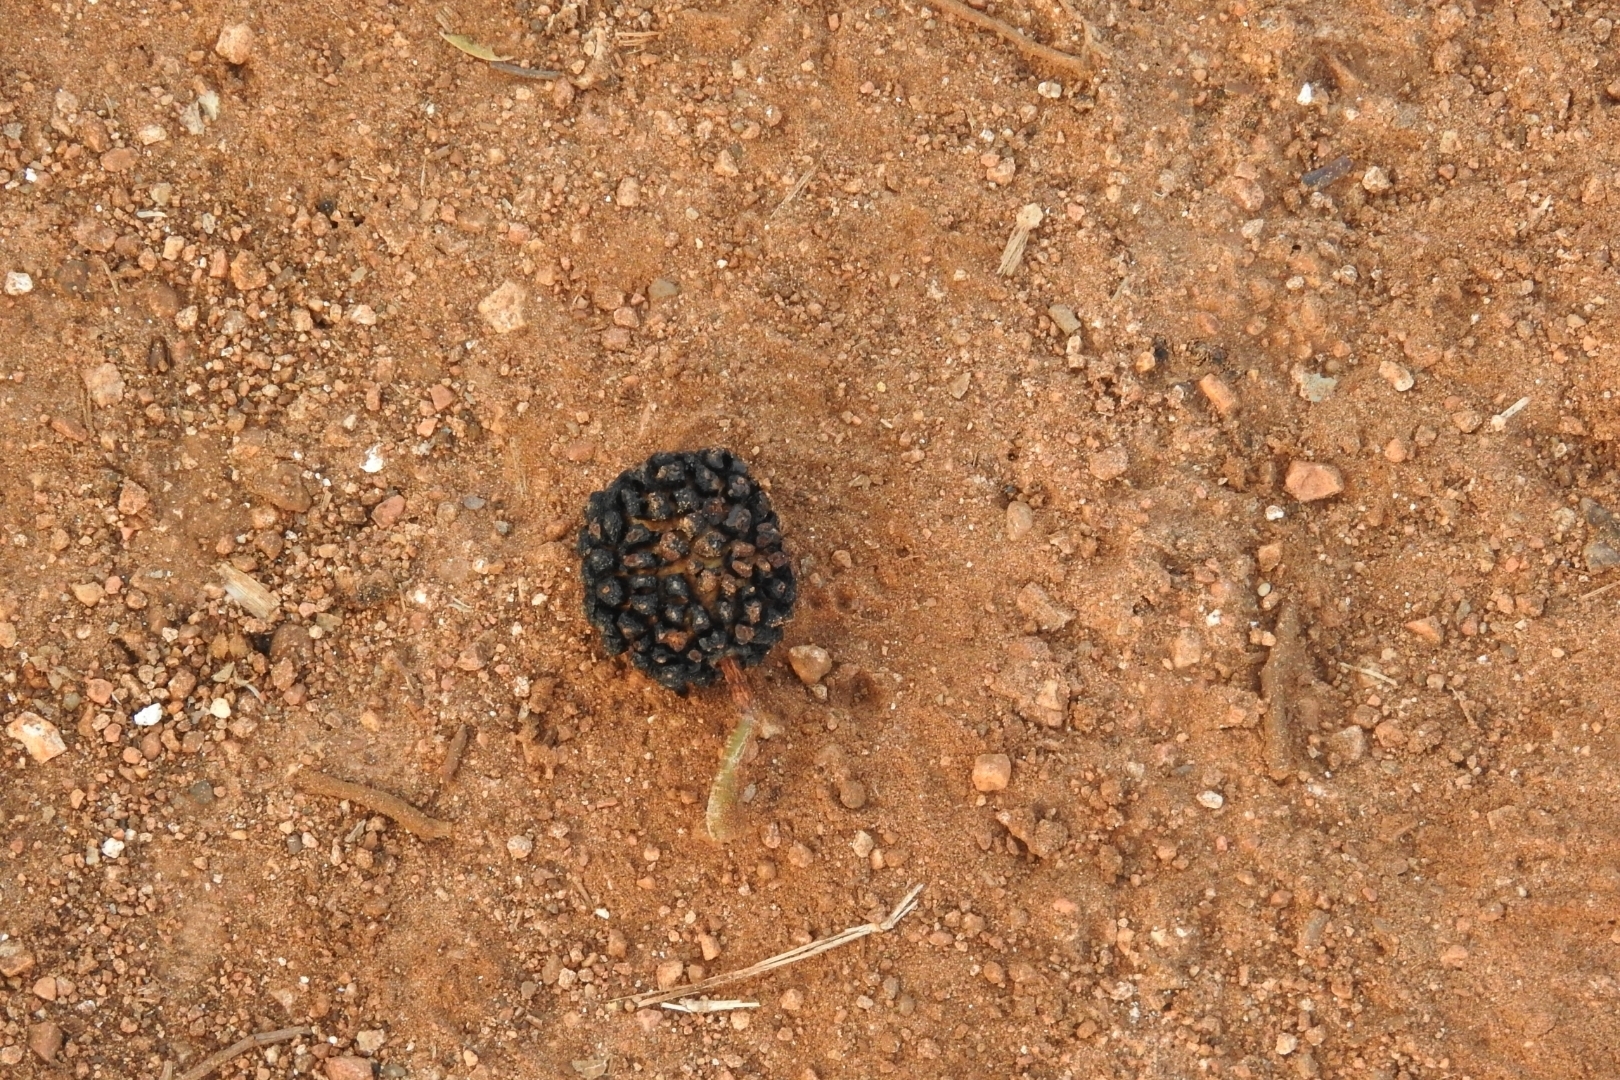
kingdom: Plantae
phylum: Tracheophyta
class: Magnoliopsida
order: Malvales
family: Malvaceae
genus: Guazuma
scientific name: Guazuma ulmifolia
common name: Bastard-cedar
